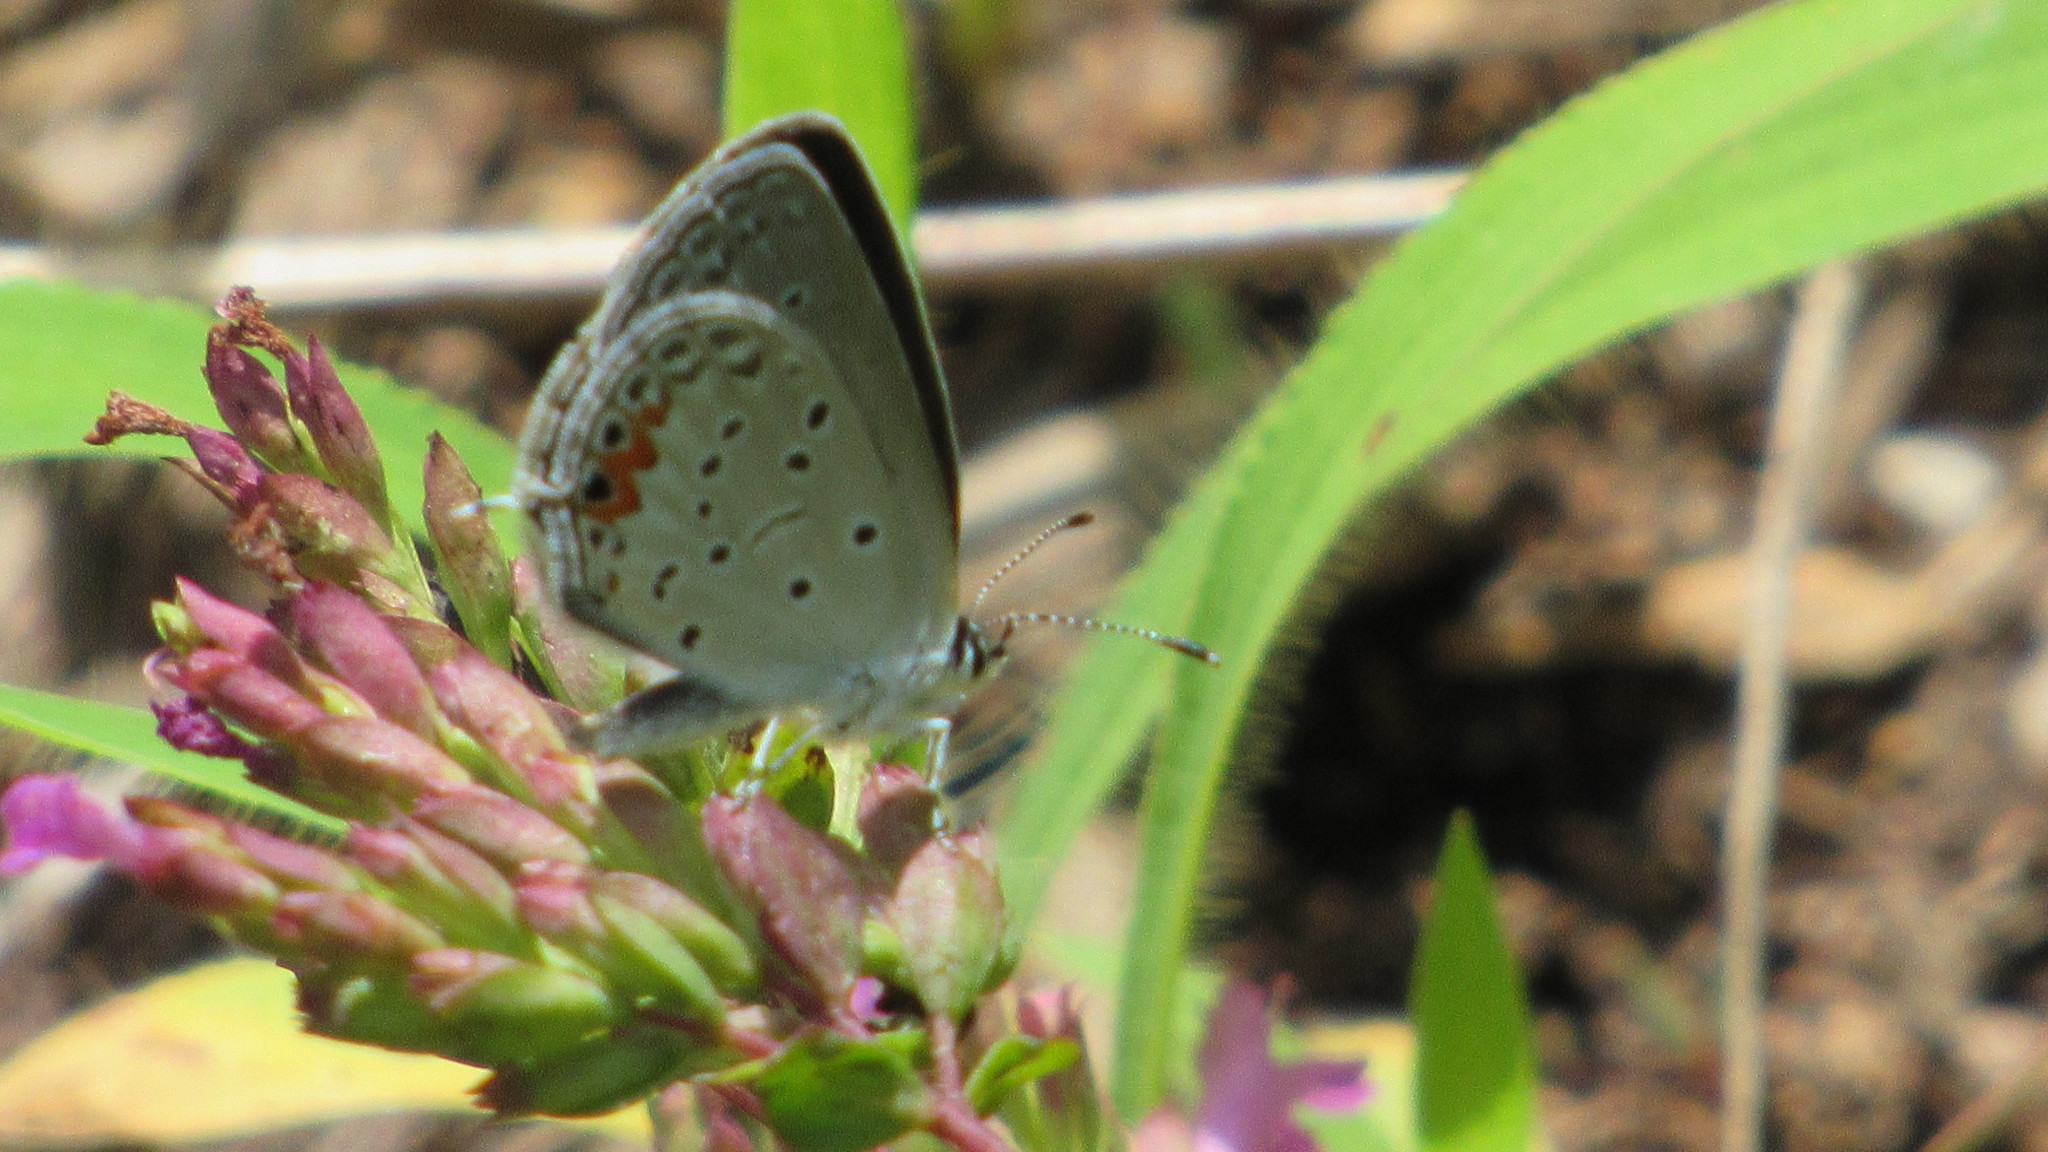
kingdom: Animalia
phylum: Arthropoda
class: Insecta
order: Lepidoptera
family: Lycaenidae
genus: Elkalyce
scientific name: Elkalyce comyntas
